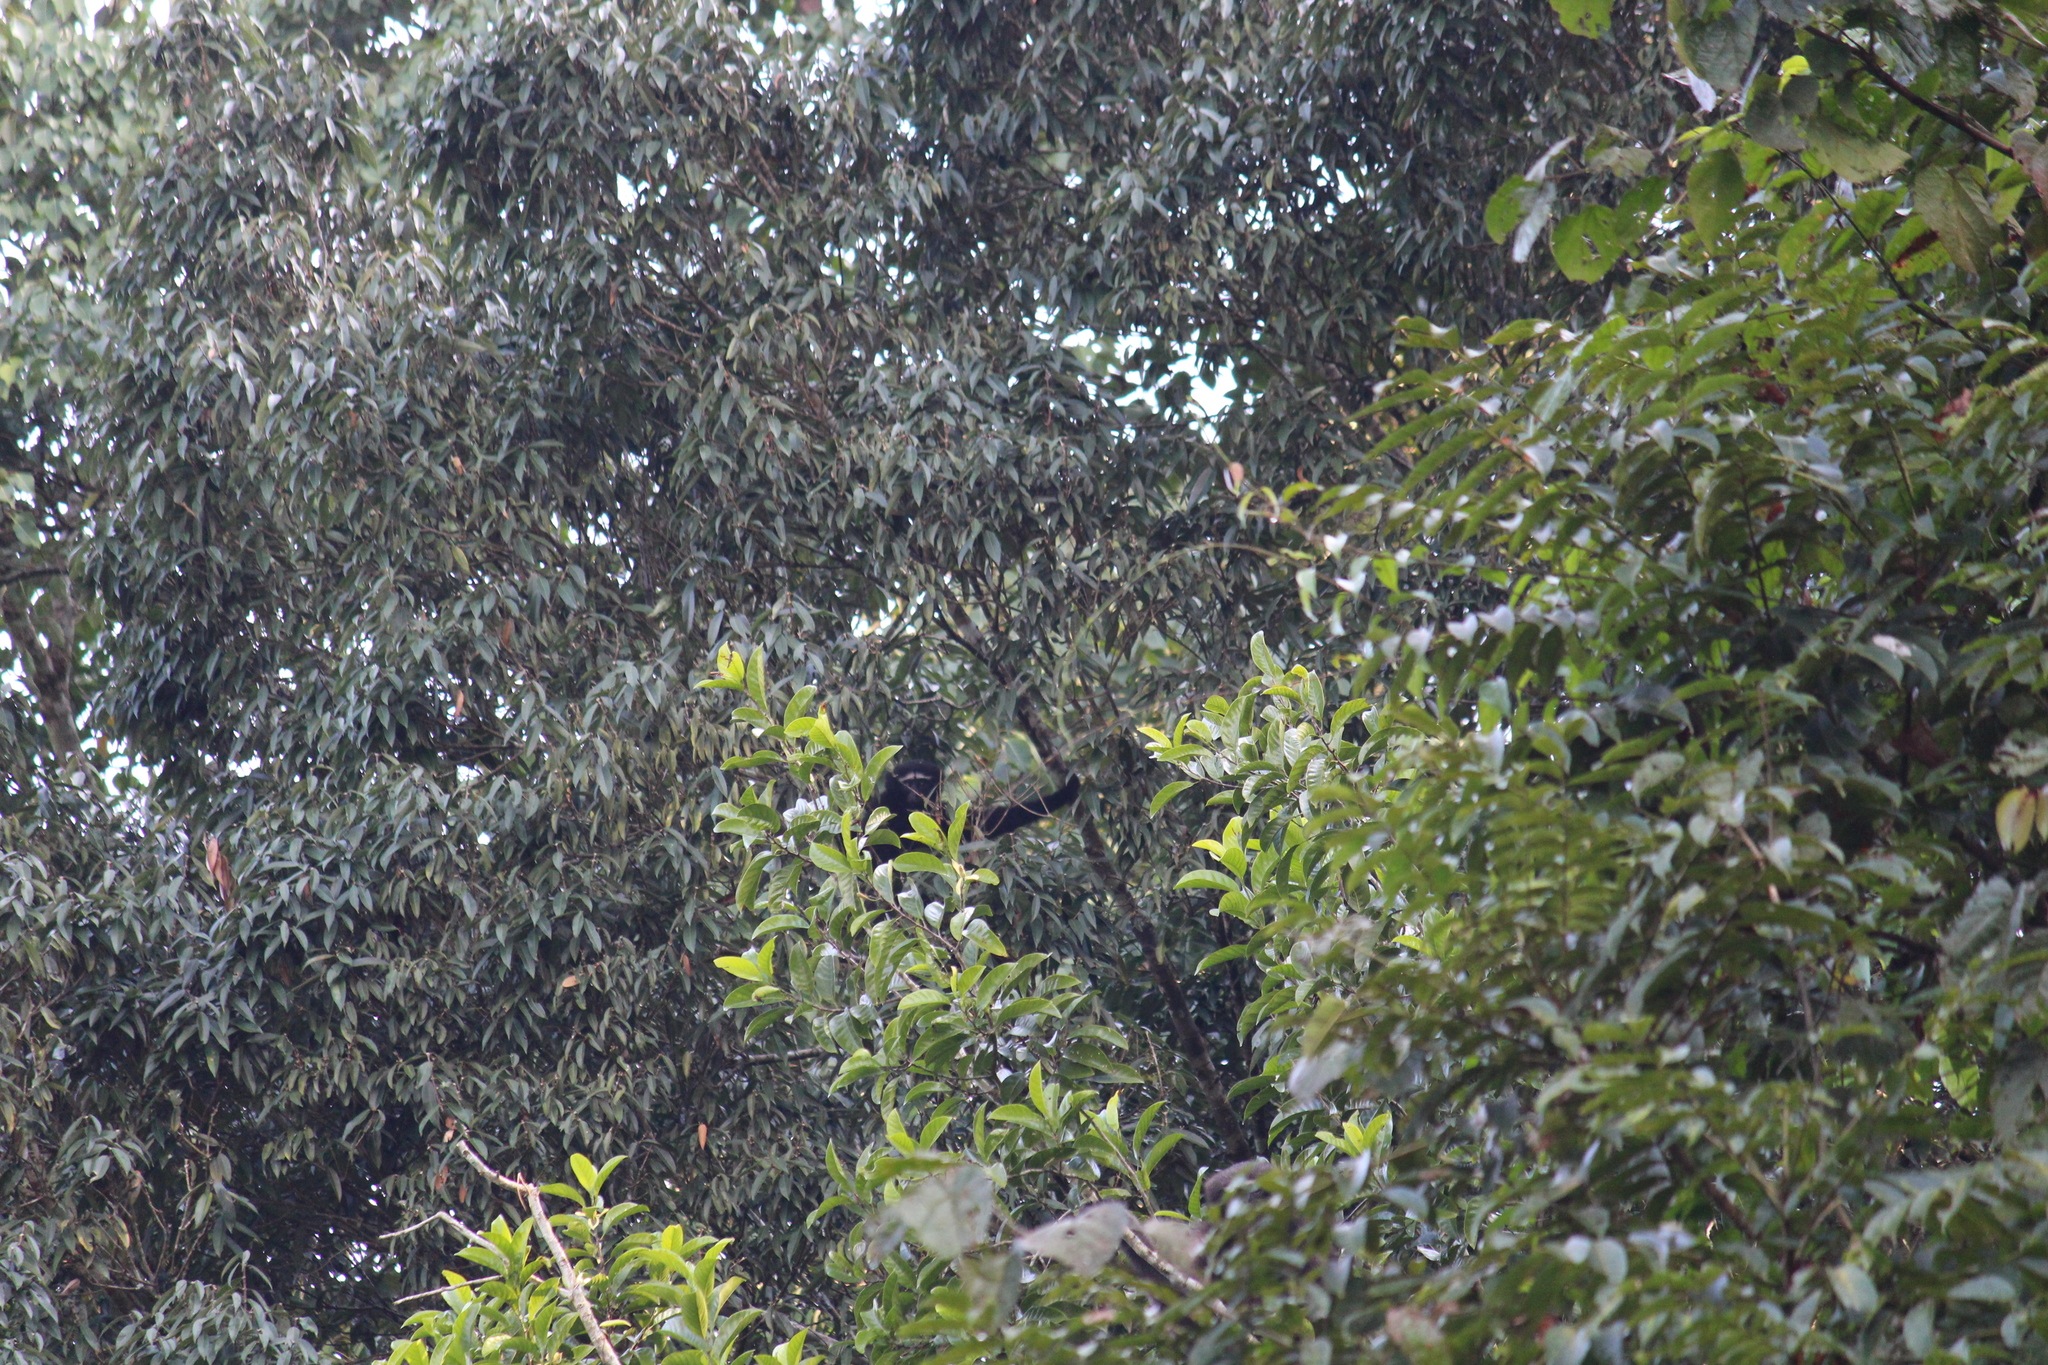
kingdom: Animalia
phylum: Chordata
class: Mammalia
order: Primates
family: Hylobatidae
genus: Hoolock
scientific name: Hoolock hoolock
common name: Western hoolock gibbon
